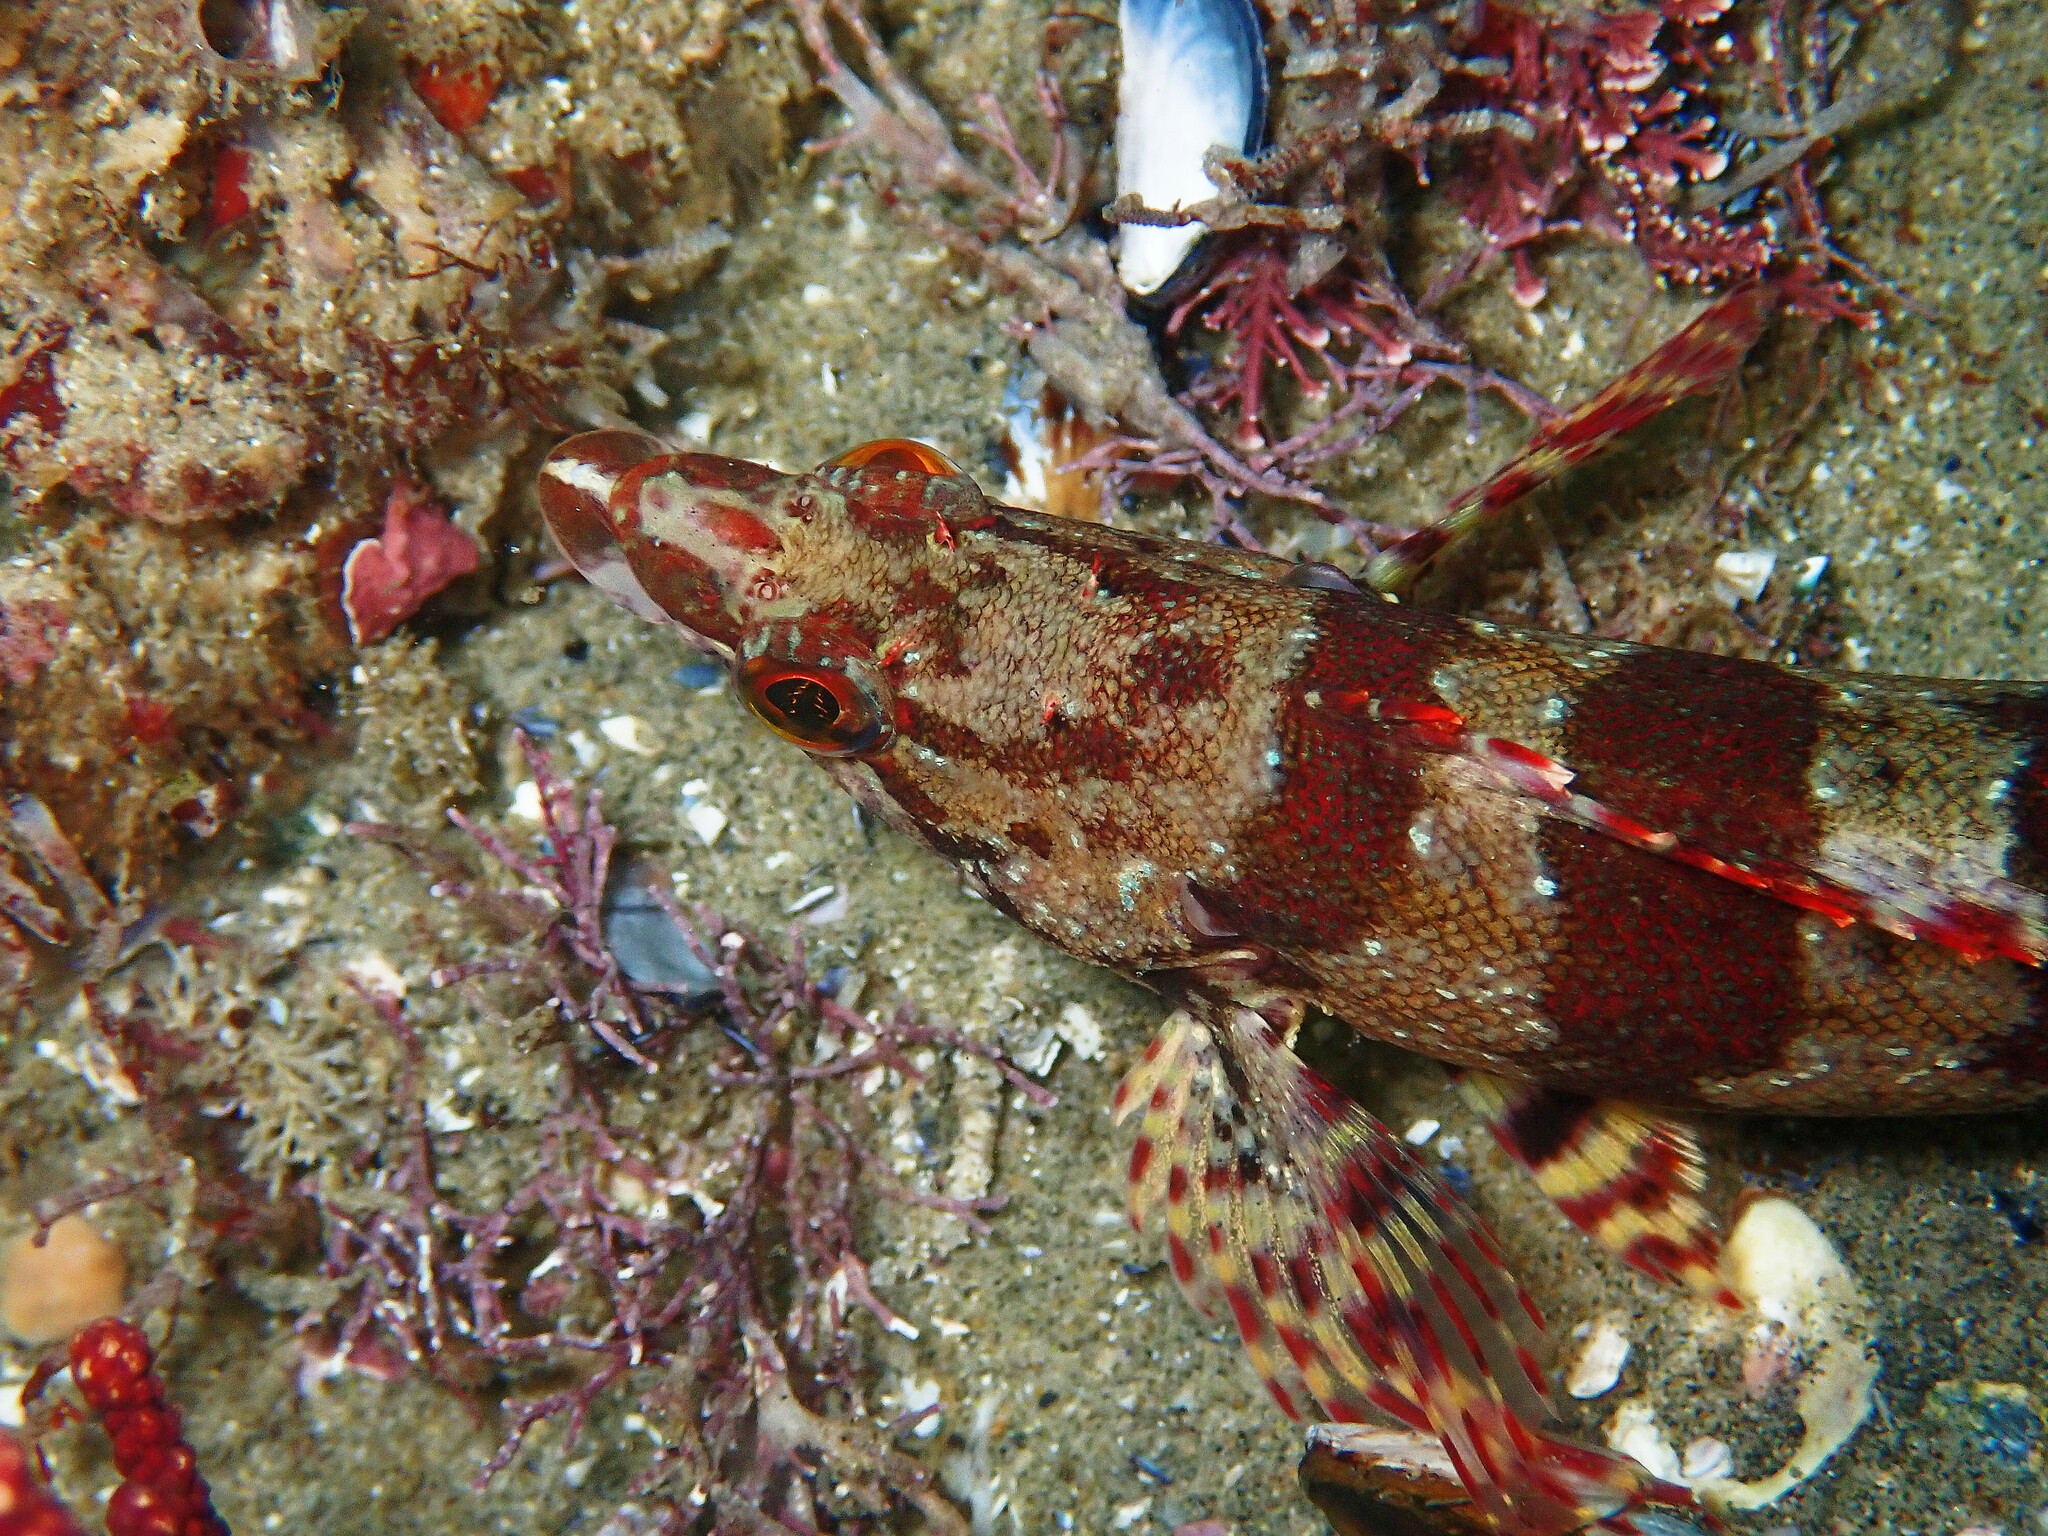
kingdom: Animalia
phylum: Chordata
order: Scorpaeniformes
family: Hexagrammidae
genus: Oxylebius
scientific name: Oxylebius pictus
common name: Painted greenling
